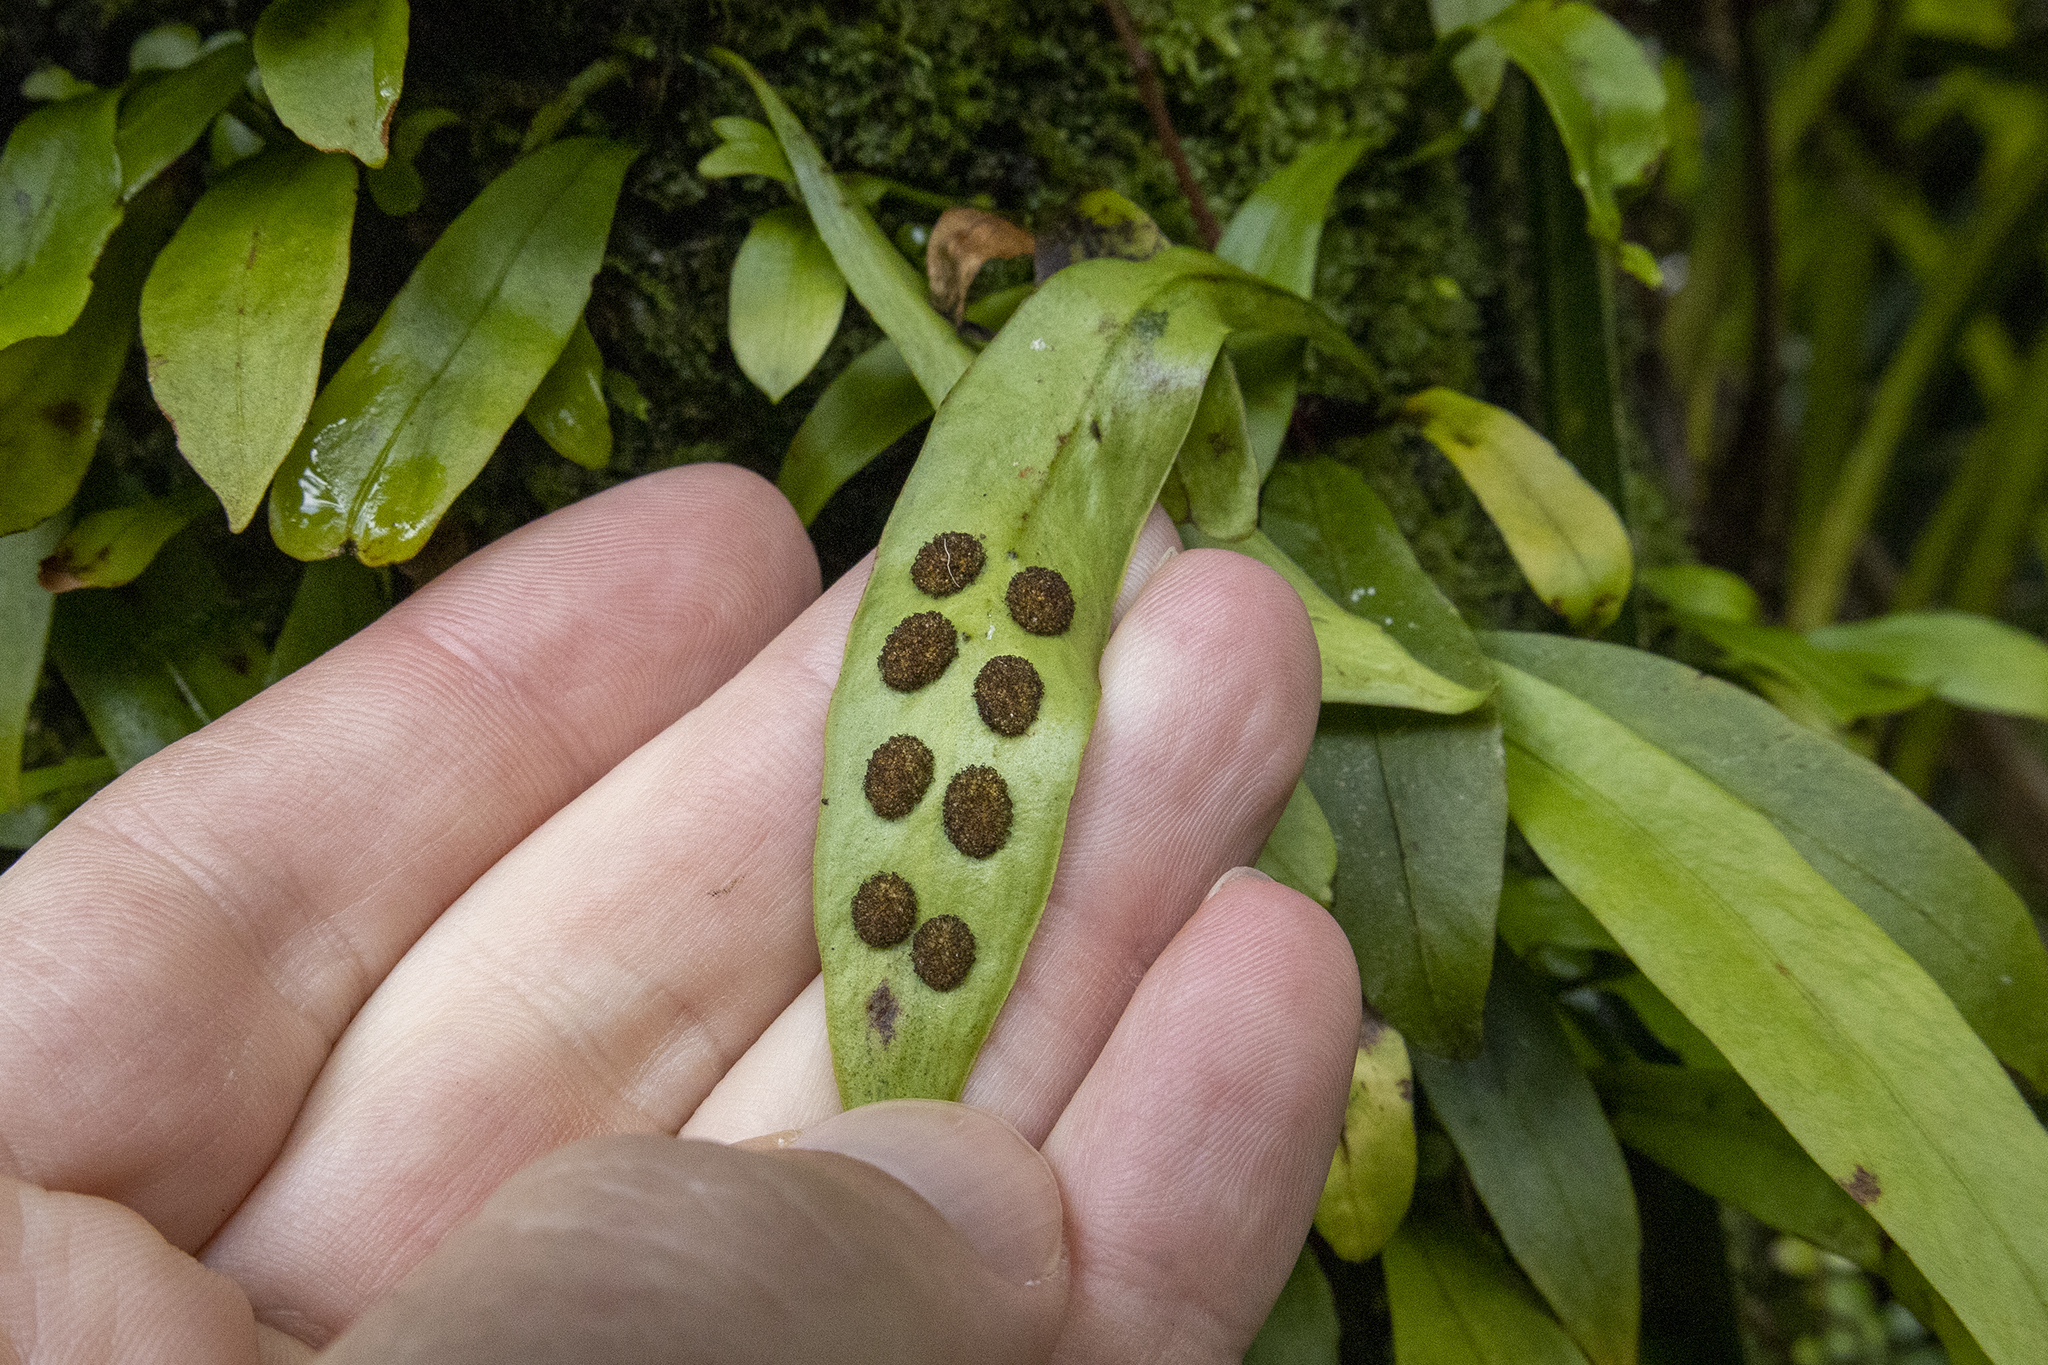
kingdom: Plantae
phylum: Tracheophyta
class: Polypodiopsida
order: Polypodiales
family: Polypodiaceae
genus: Loxogramme
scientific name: Loxogramme dictyopteris
